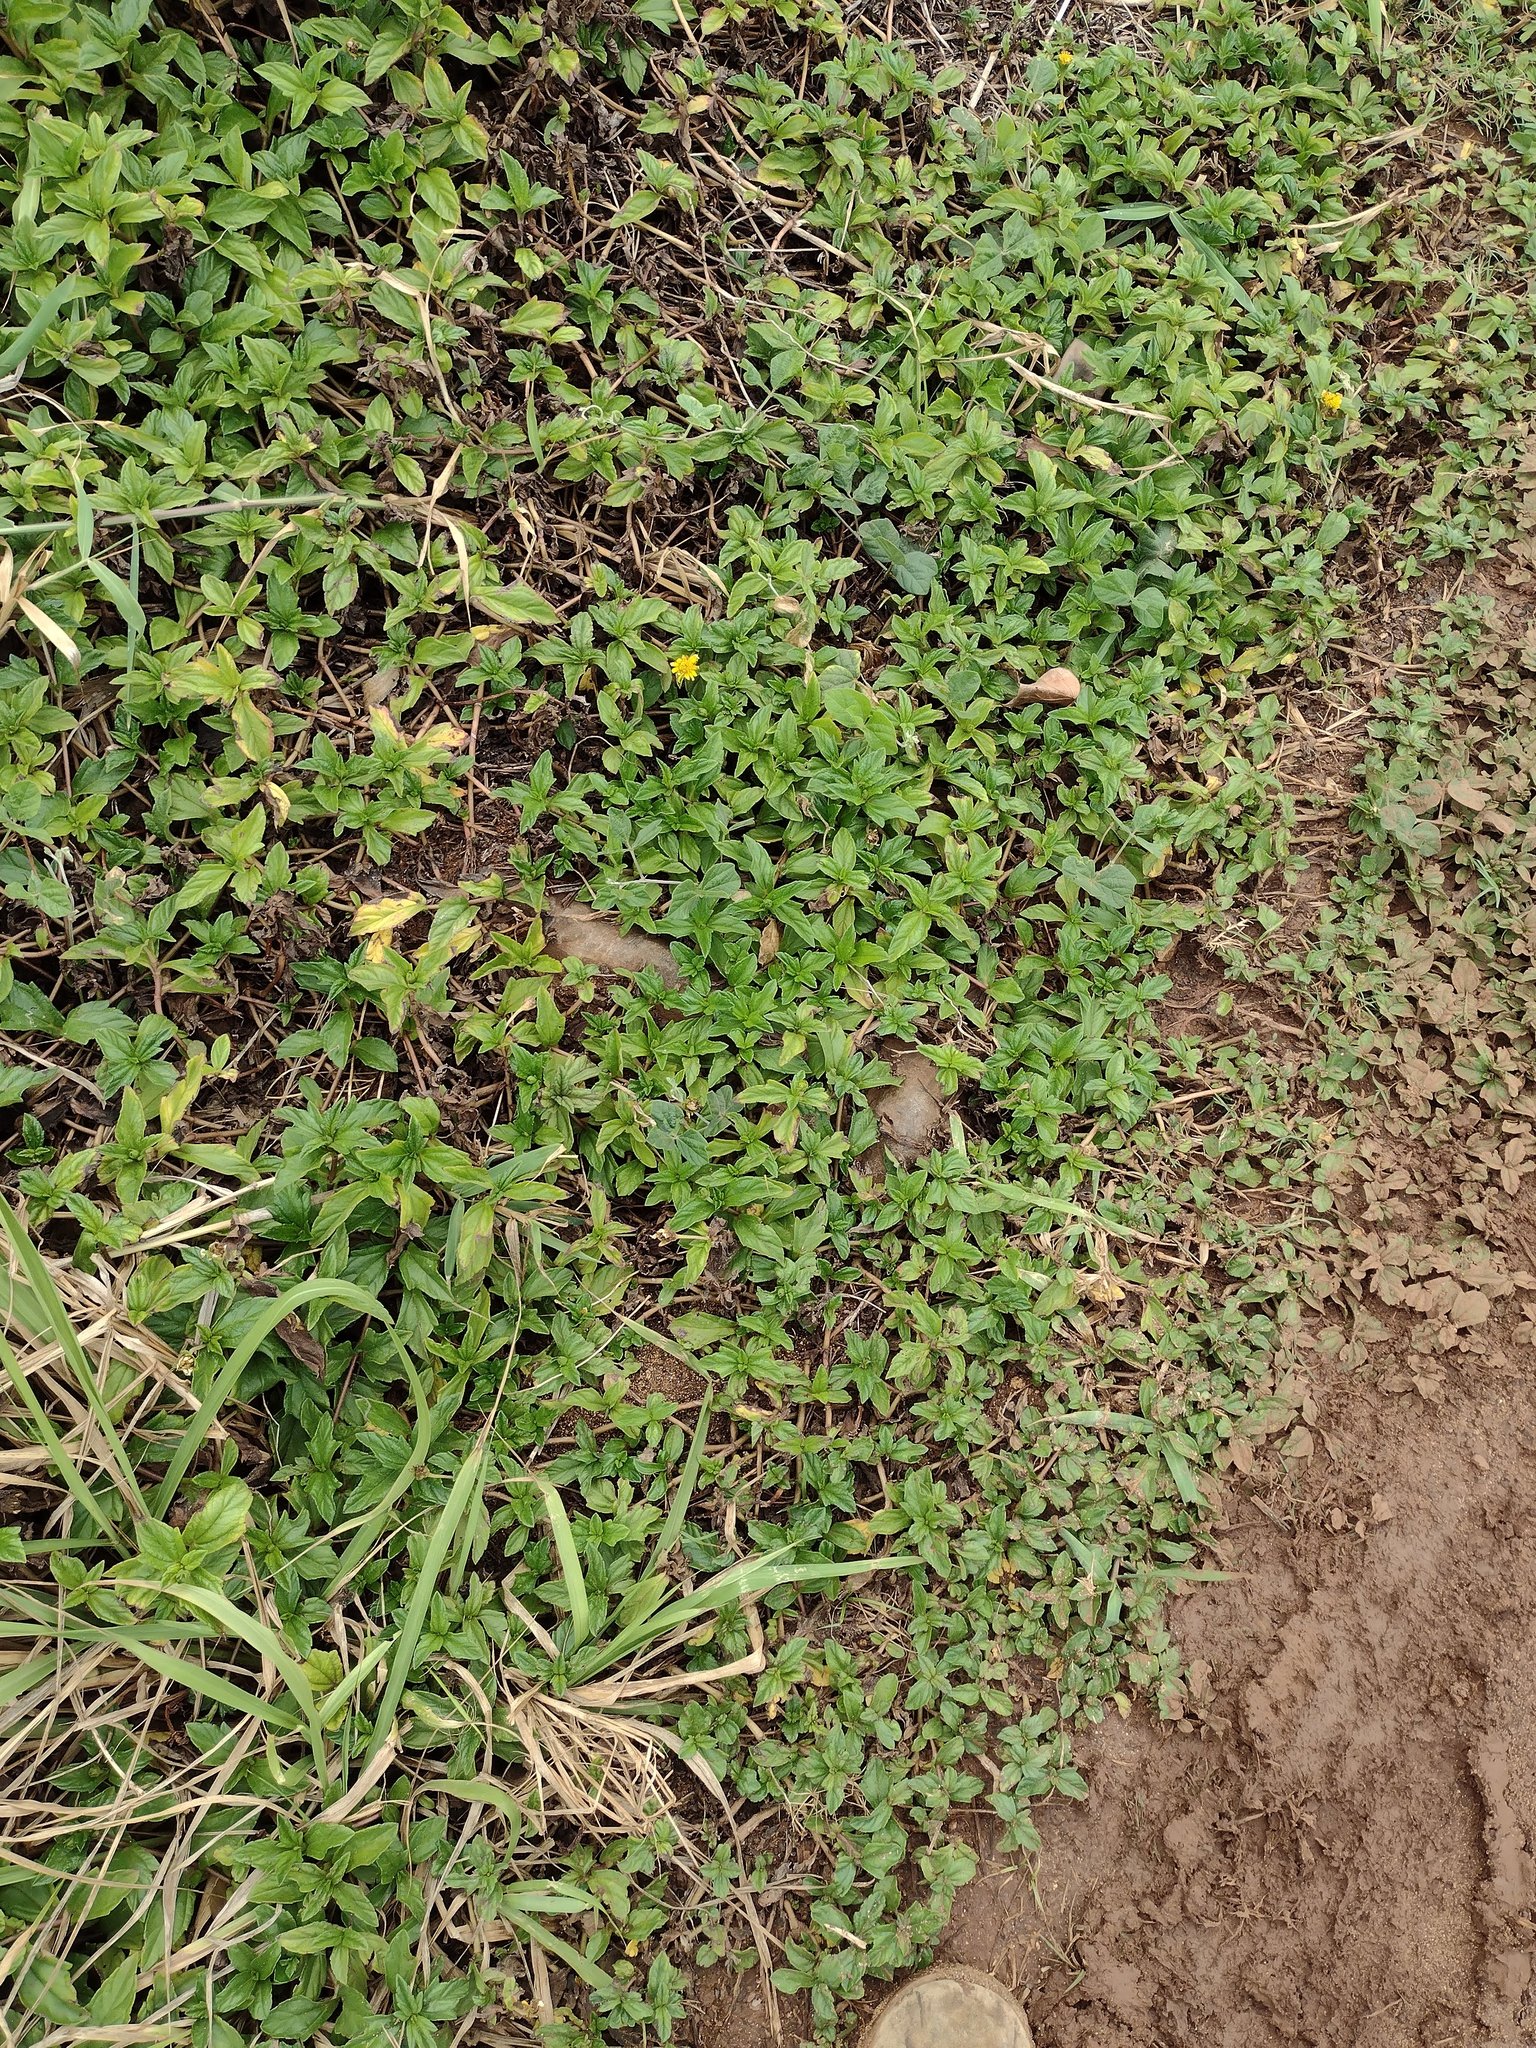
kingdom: Plantae
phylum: Tracheophyta
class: Magnoliopsida
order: Asterales
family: Asteraceae
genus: Sphagneticola
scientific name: Sphagneticola trilobata
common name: Bay biscayne creeping-oxeye
